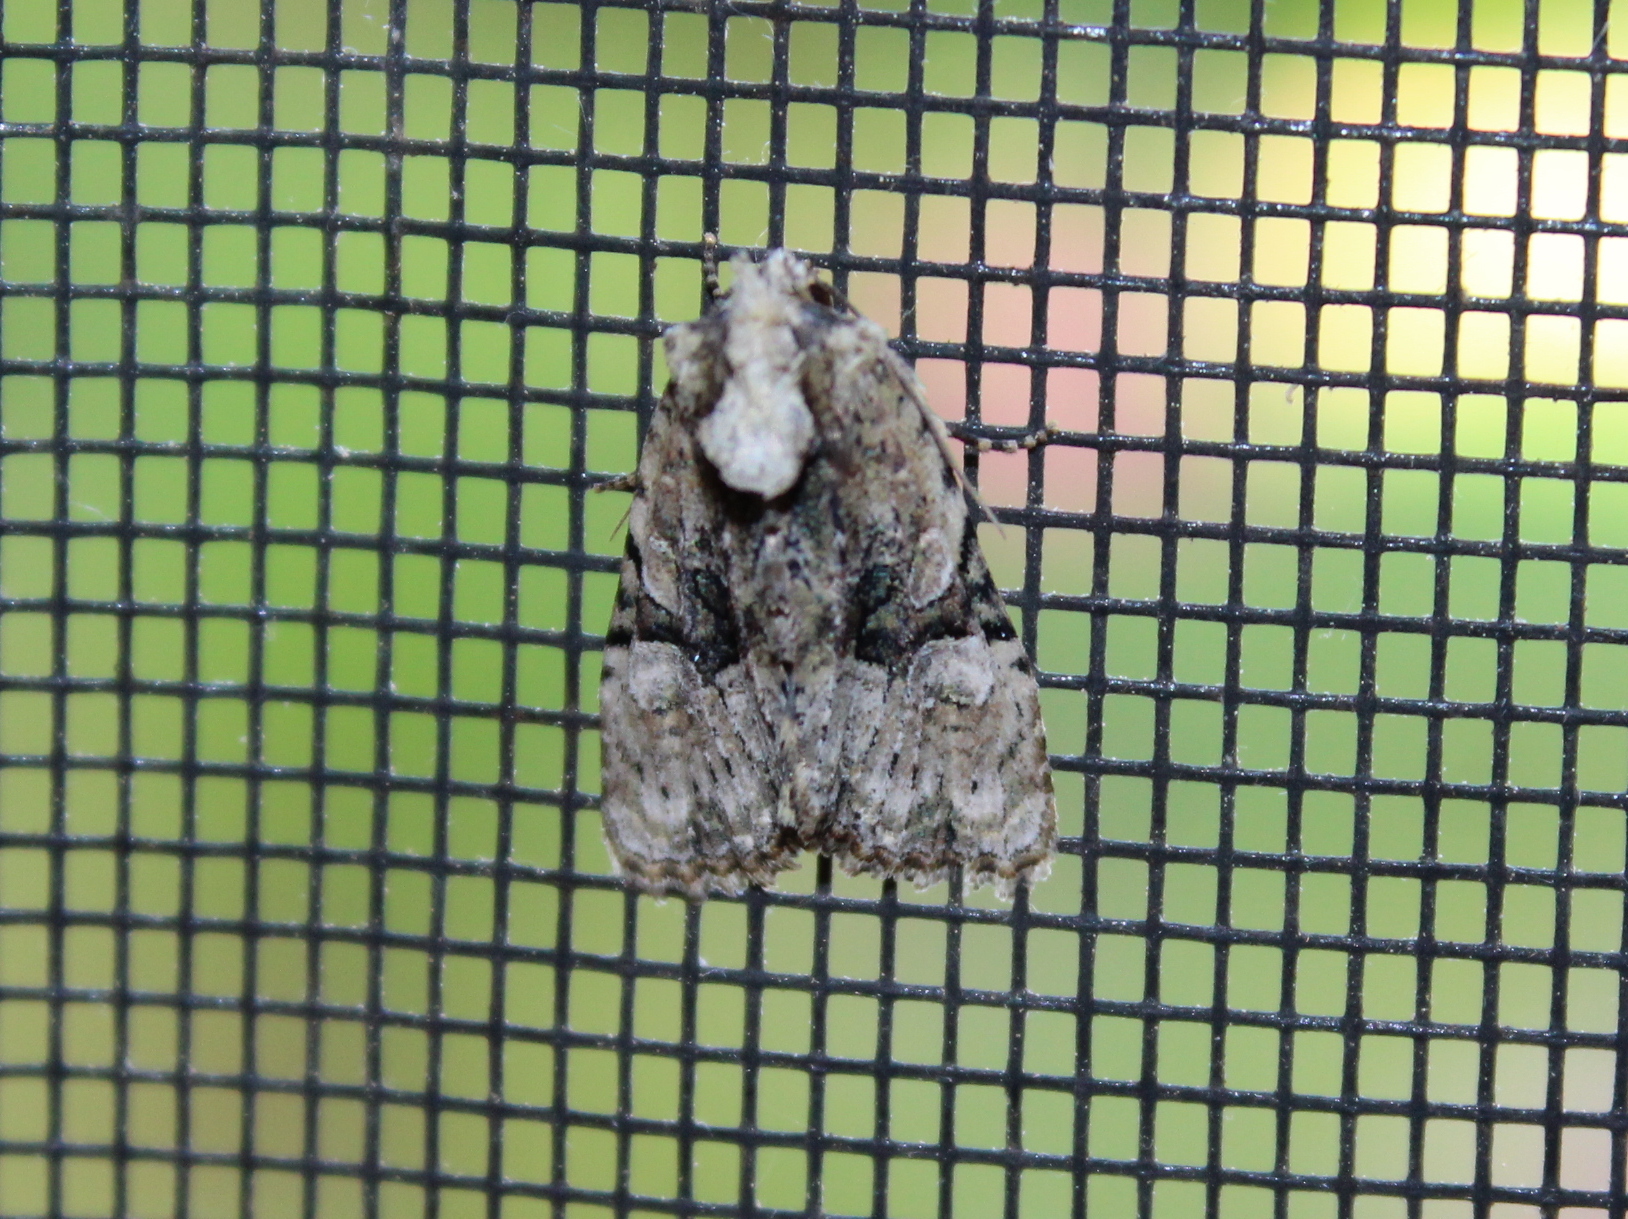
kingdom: Animalia
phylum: Arthropoda
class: Insecta
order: Lepidoptera
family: Noctuidae
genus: Oligia
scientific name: Oligia modica
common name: Black-banded brocade
